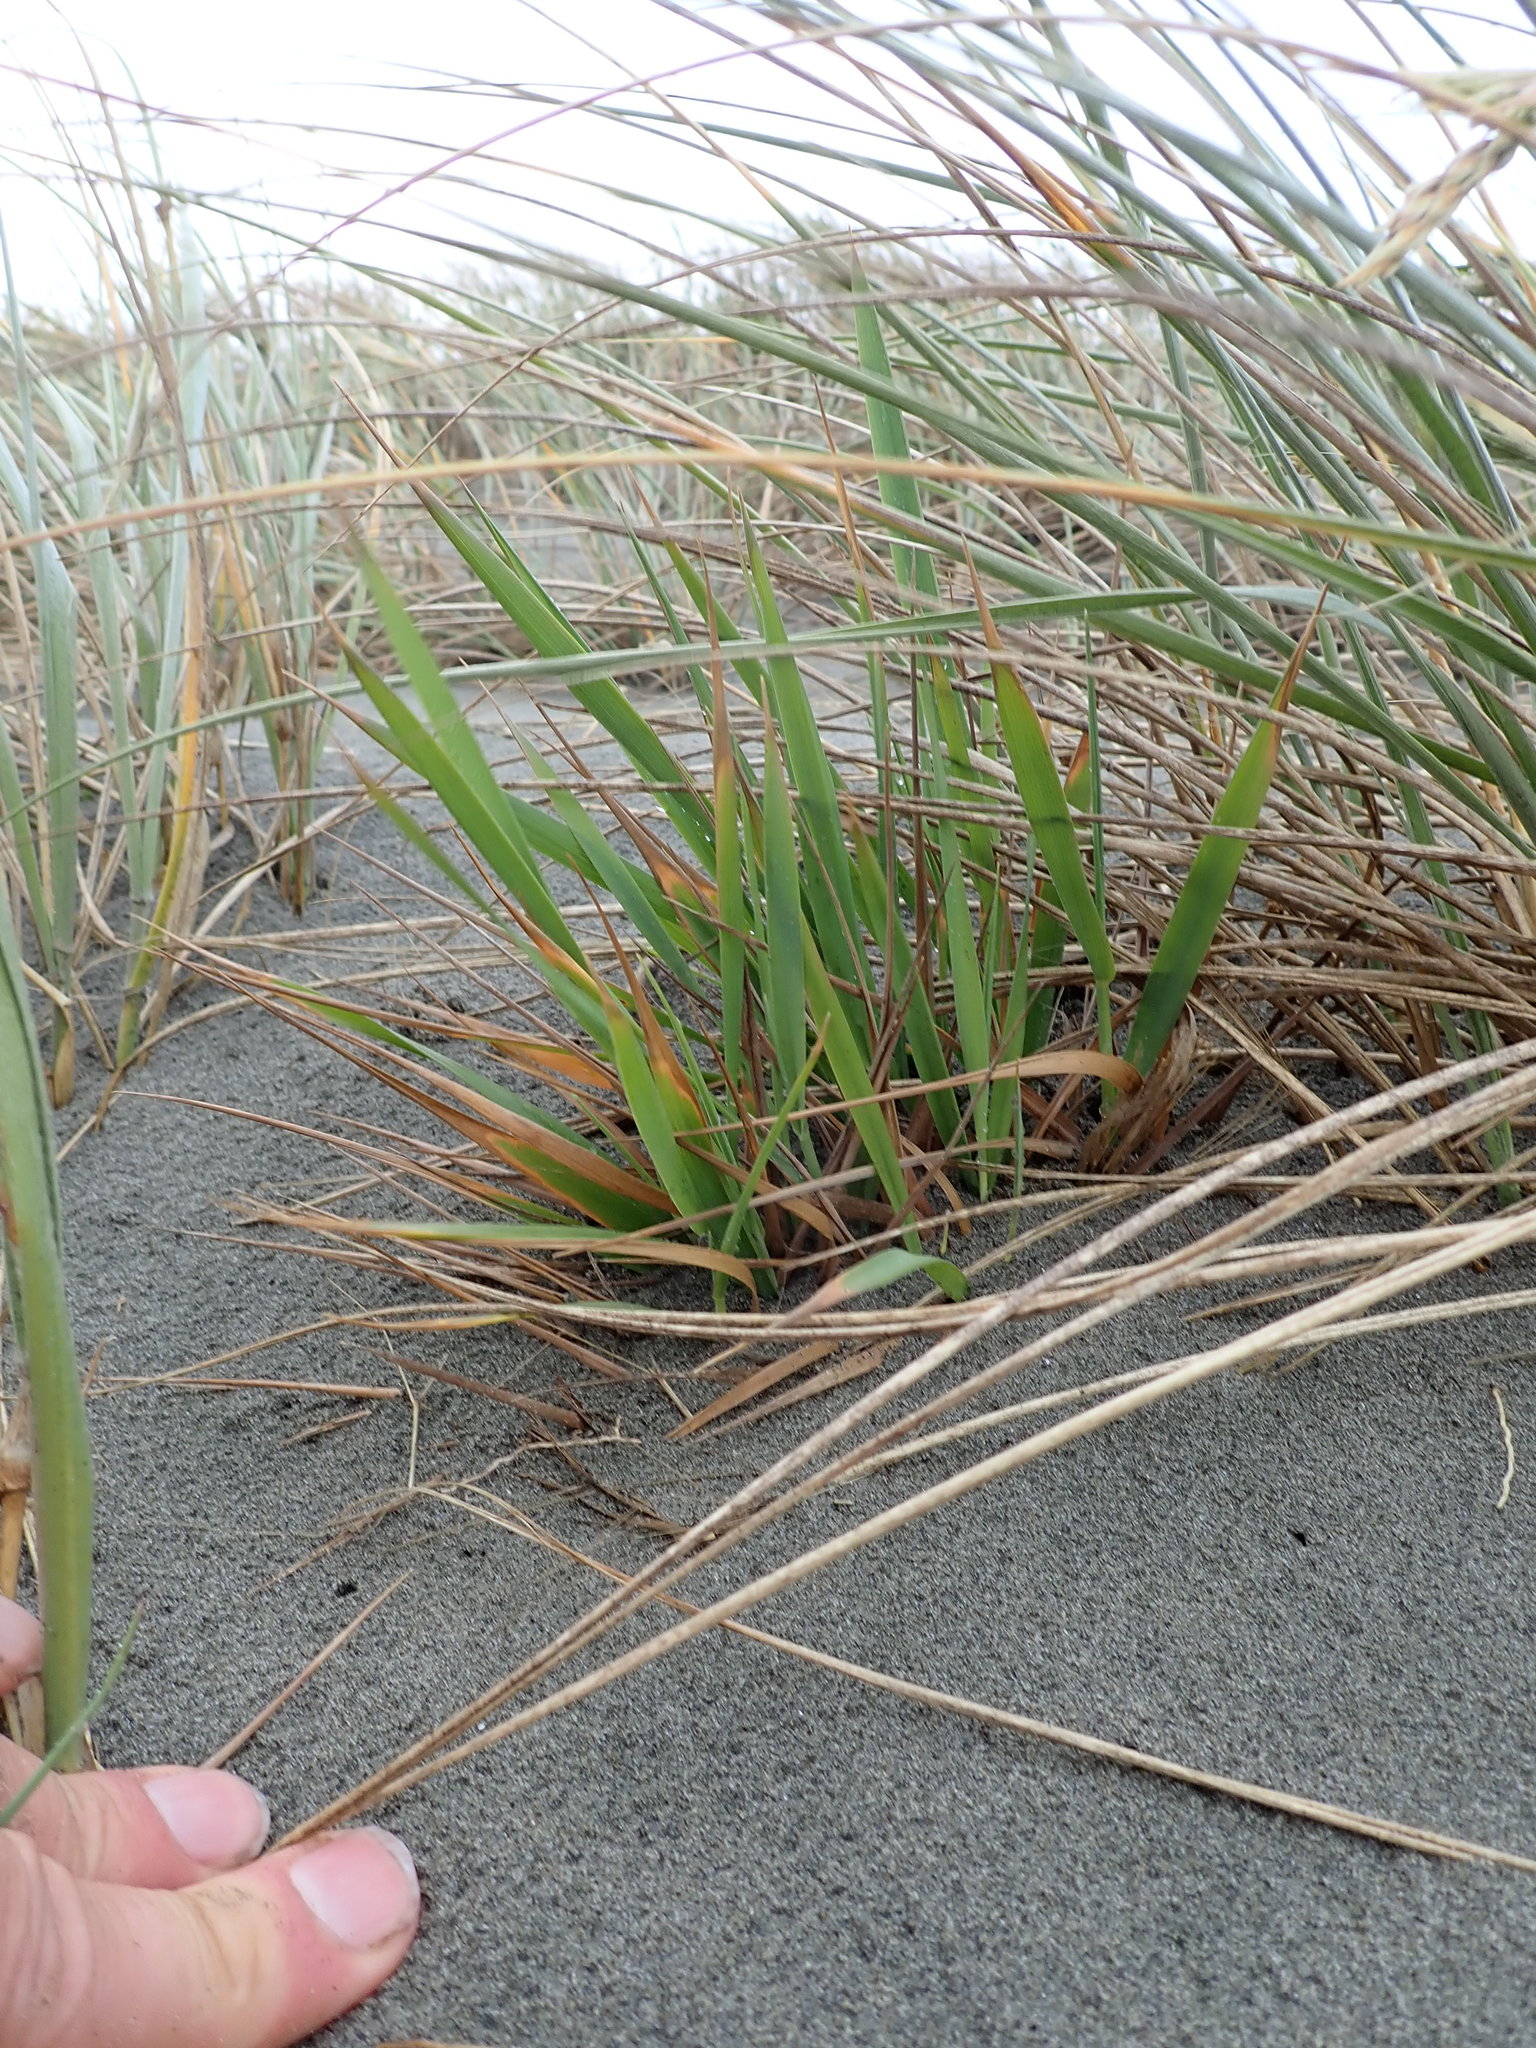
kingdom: Plantae
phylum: Tracheophyta
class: Liliopsida
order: Poales
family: Poaceae
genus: Lachnagrostis
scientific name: Lachnagrostis billardierei
